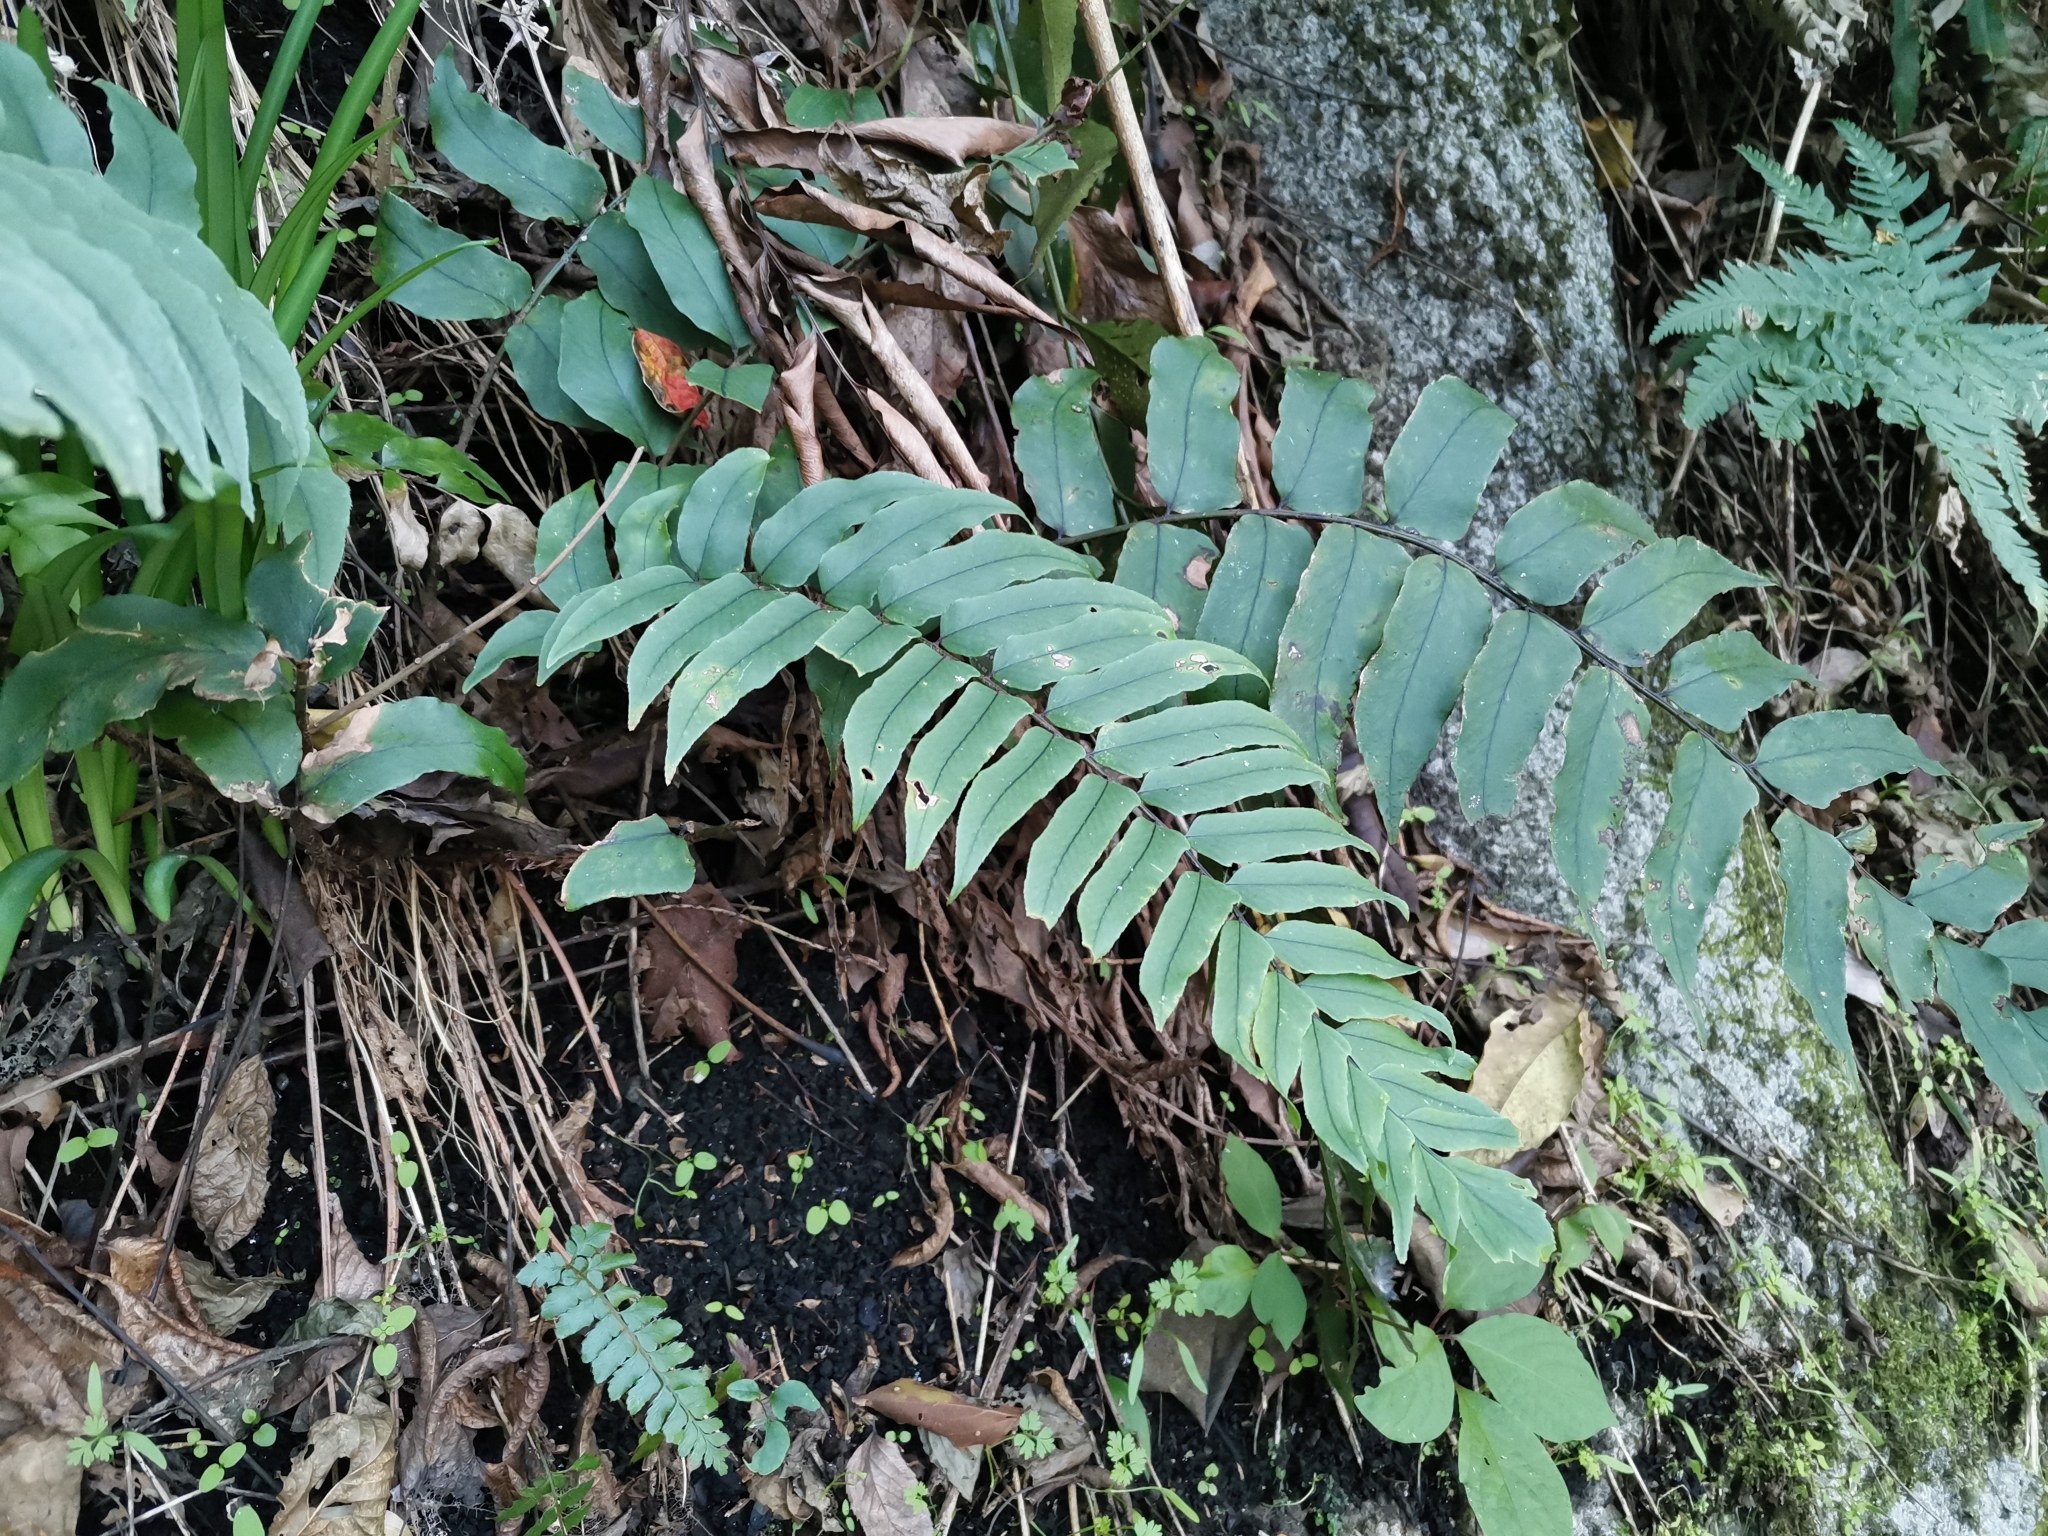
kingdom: Plantae
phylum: Tracheophyta
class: Polypodiopsida
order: Polypodiales
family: Dryopteridaceae
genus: Cyrtomium
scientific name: Cyrtomium fortunei
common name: Asian netvein hollyfern
